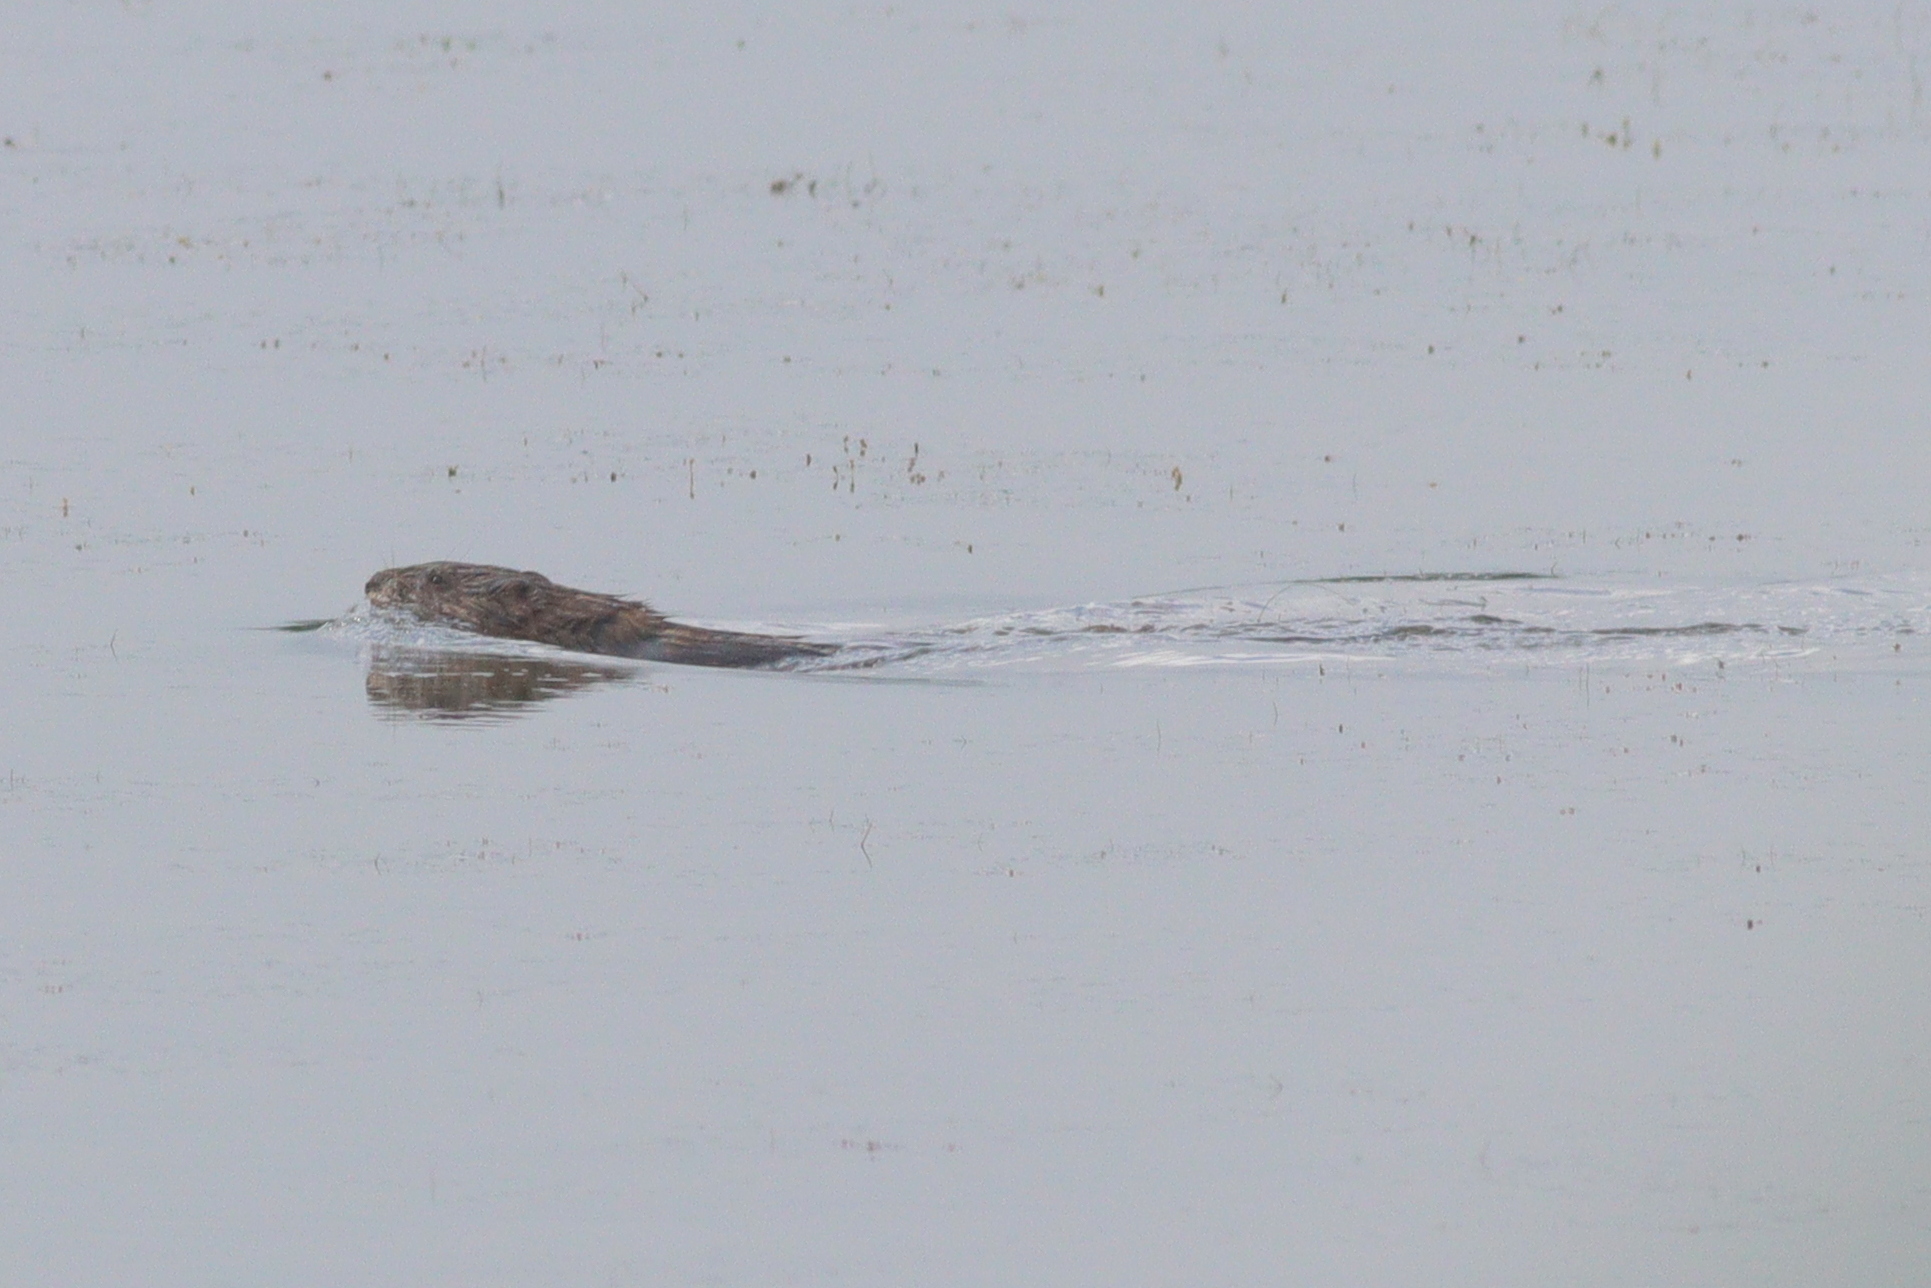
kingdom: Animalia
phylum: Chordata
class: Mammalia
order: Rodentia
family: Cricetidae
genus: Ondatra
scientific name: Ondatra zibethicus
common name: Muskrat
